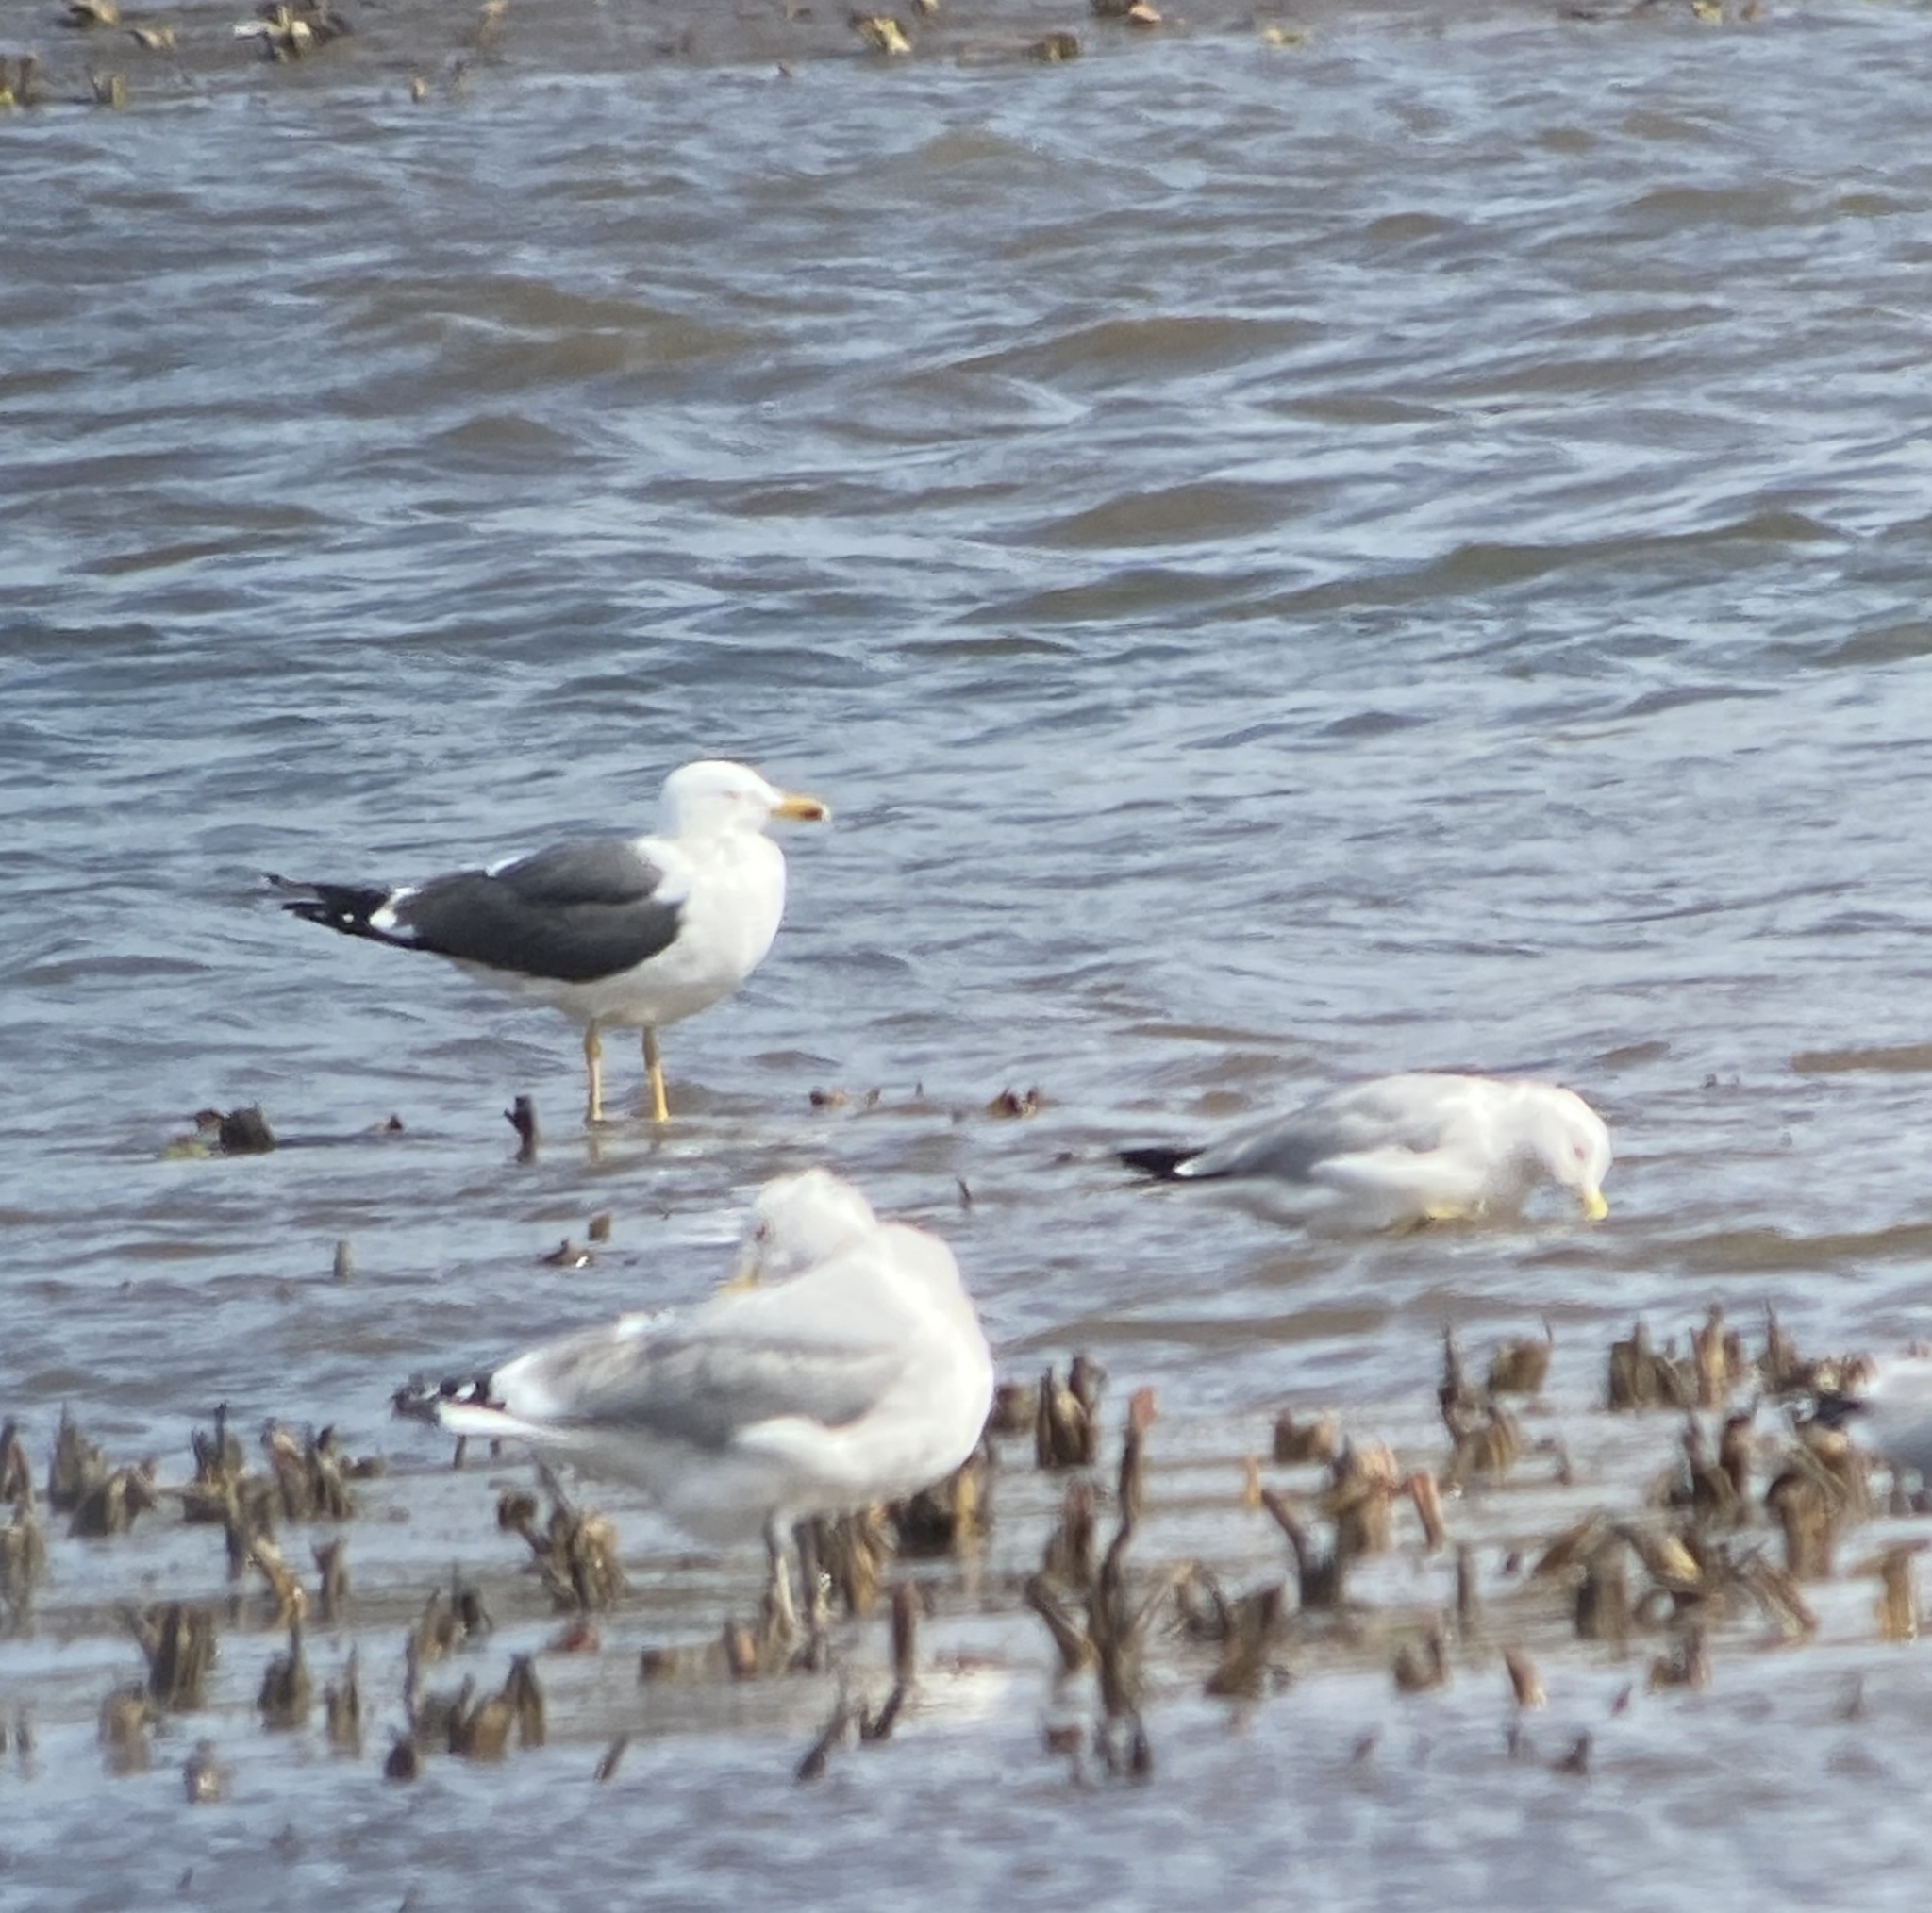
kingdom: Animalia
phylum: Chordata
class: Aves
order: Charadriiformes
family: Laridae
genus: Larus
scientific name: Larus fuscus
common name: Lesser black-backed gull
